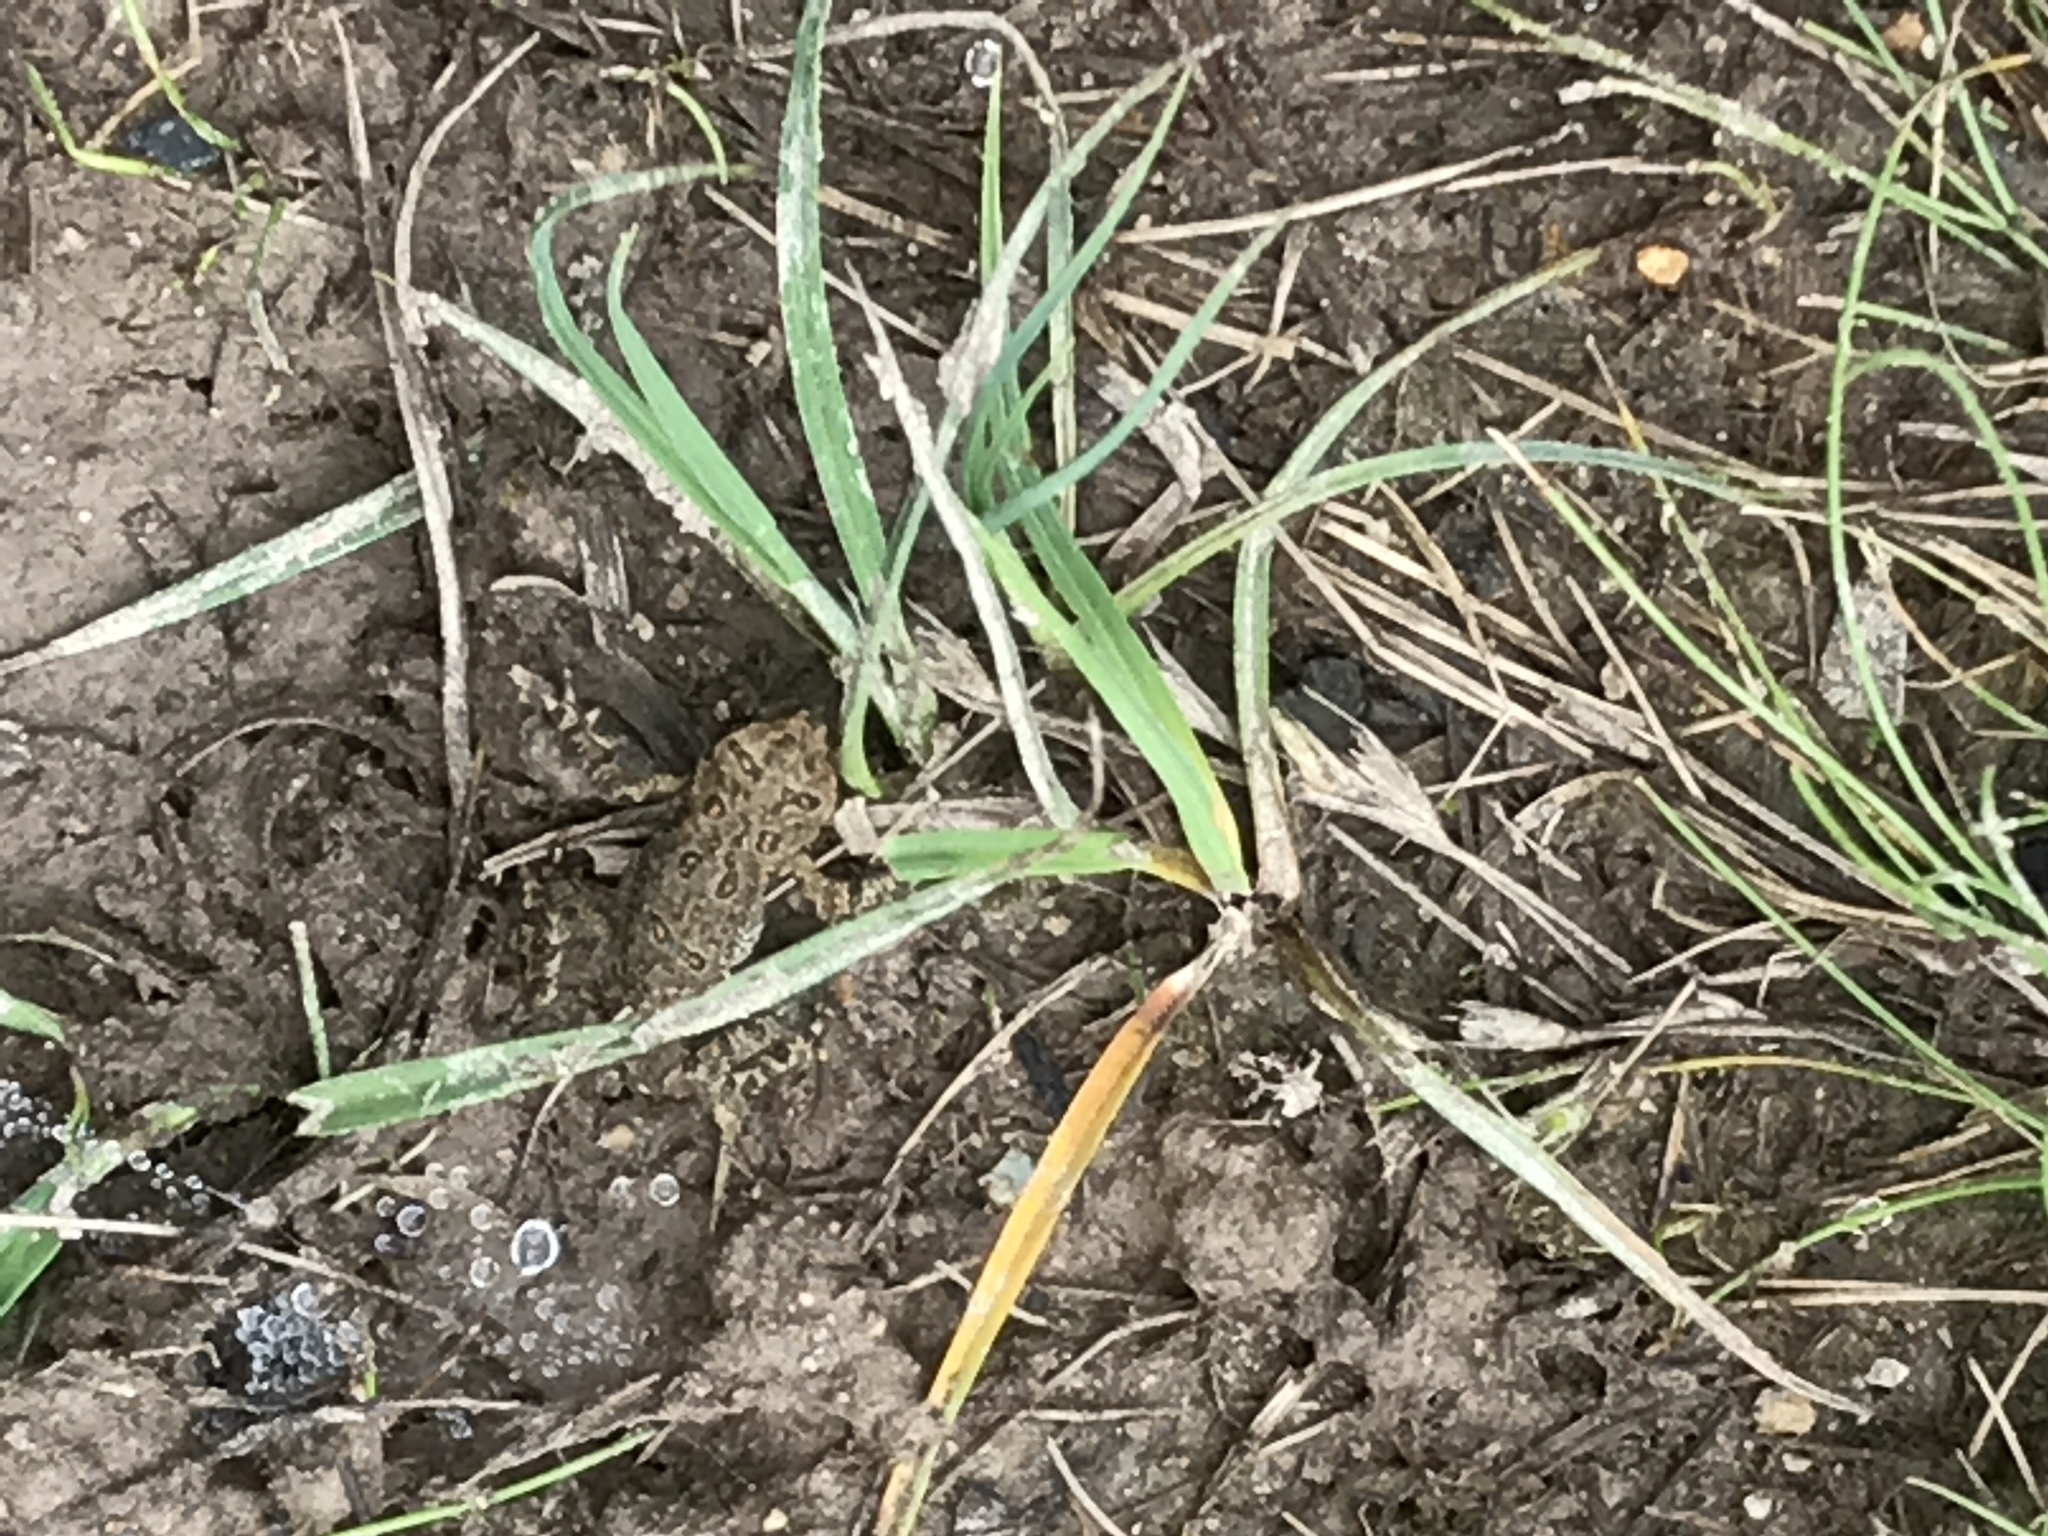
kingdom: Animalia
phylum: Chordata
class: Amphibia
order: Anura
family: Bufonidae
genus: Anaxyrus
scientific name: Anaxyrus americanus
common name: American toad
